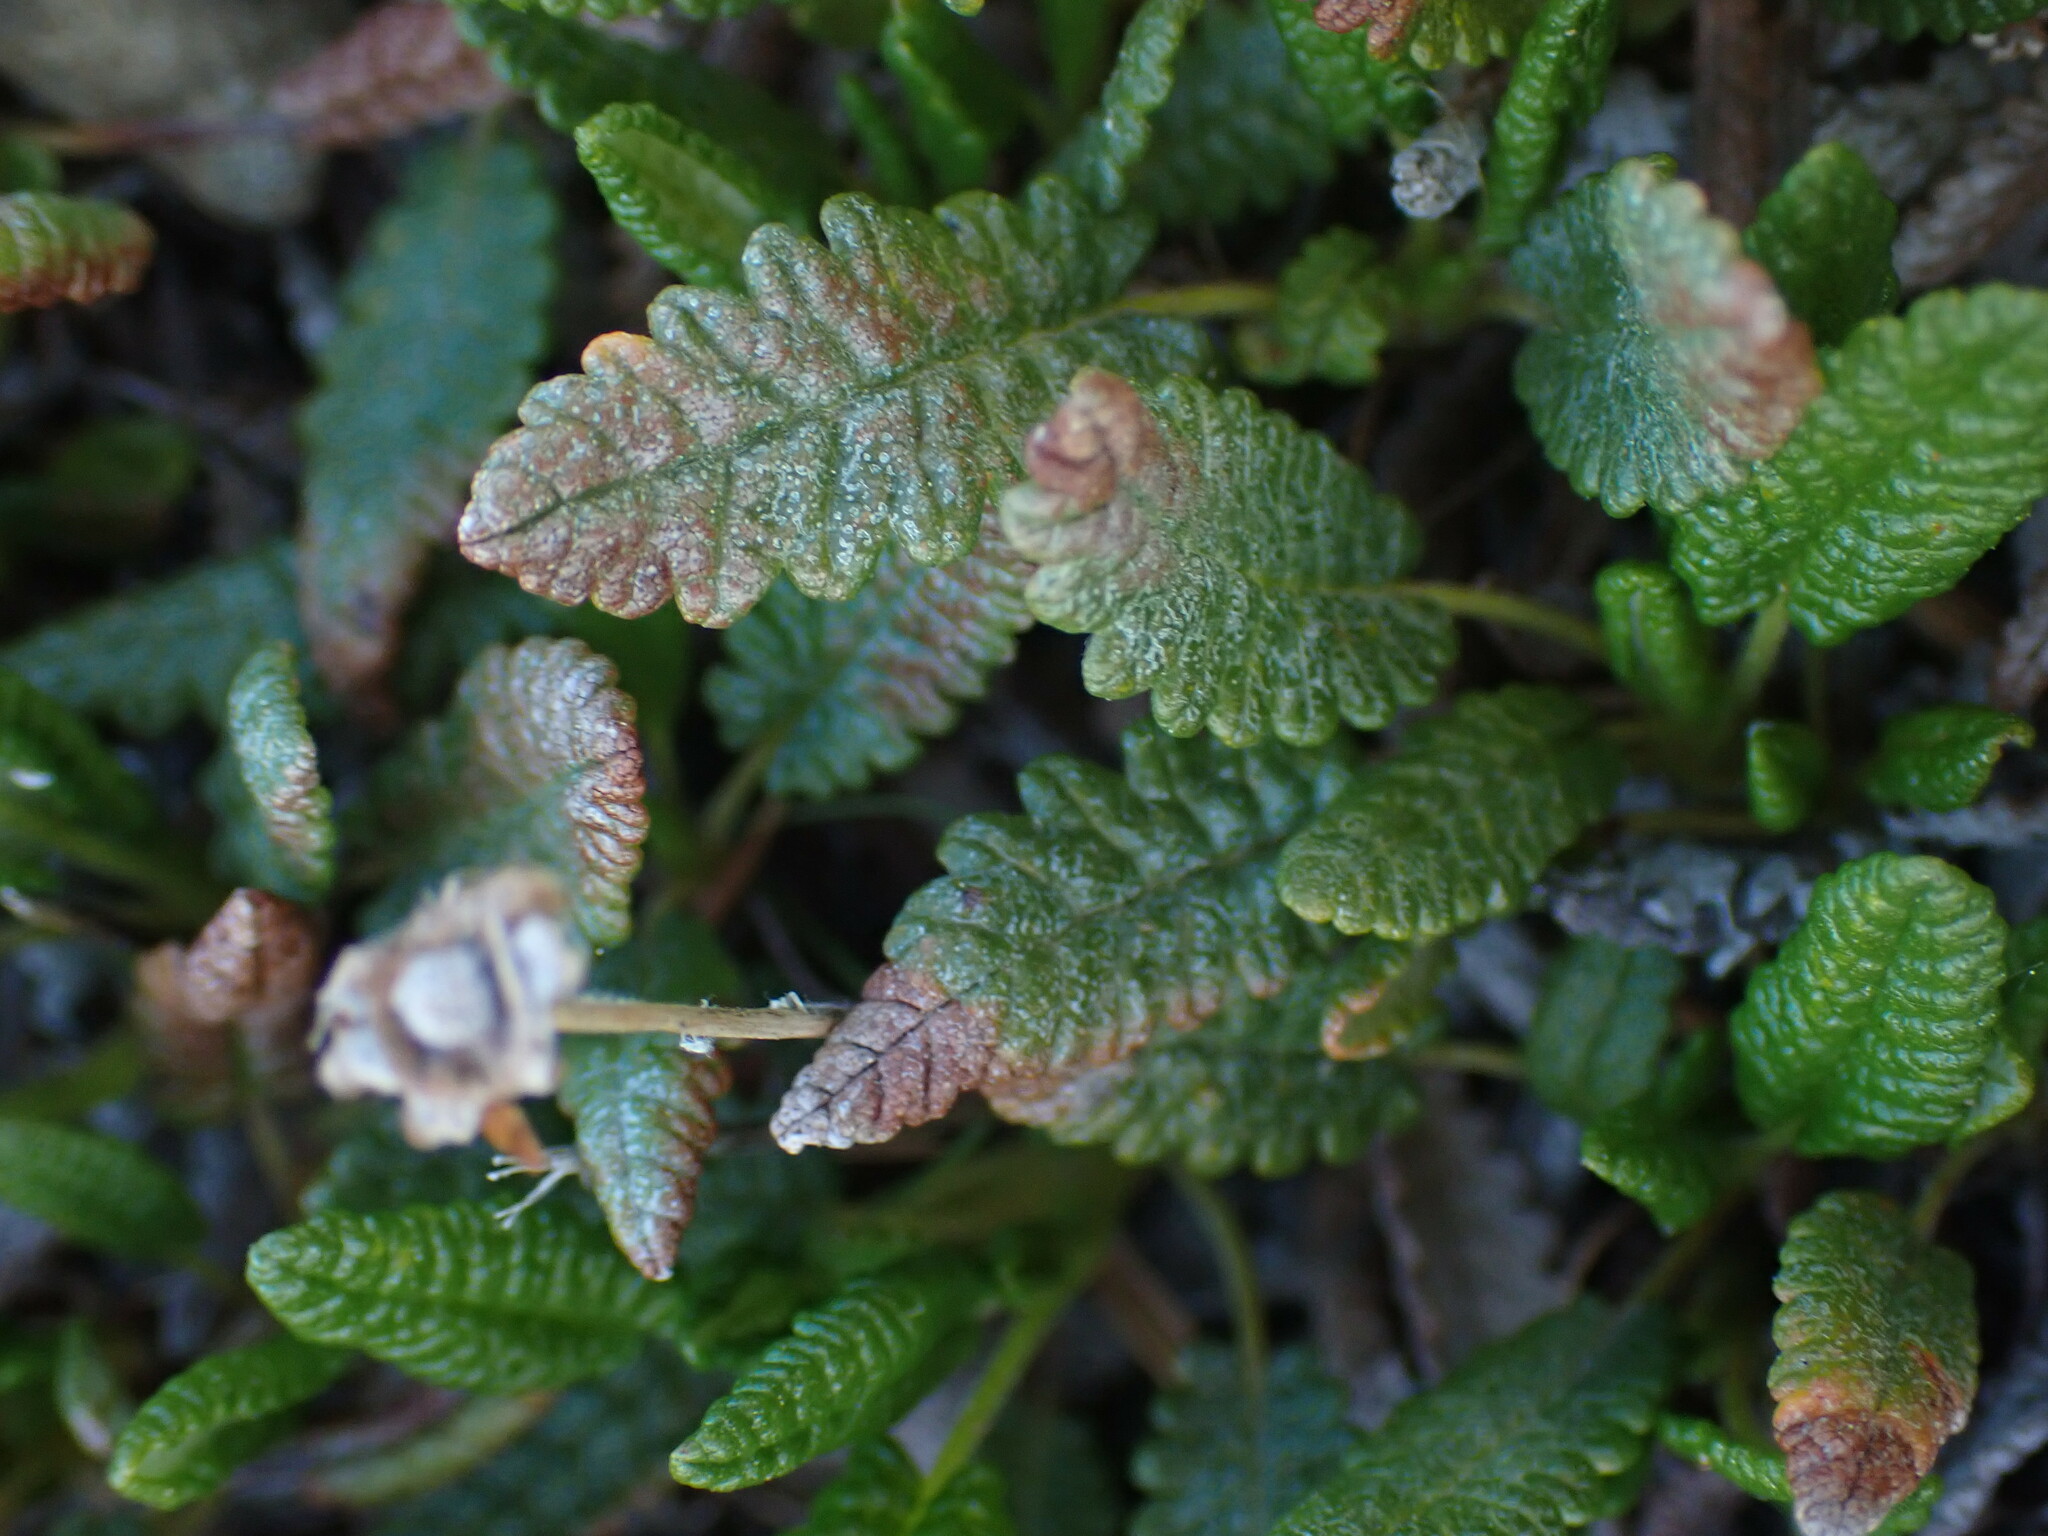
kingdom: Plantae
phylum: Tracheophyta
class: Magnoliopsida
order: Rosales
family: Rosaceae
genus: Dryas
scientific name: Dryas octopetala
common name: Eight-petal mountain-avens
